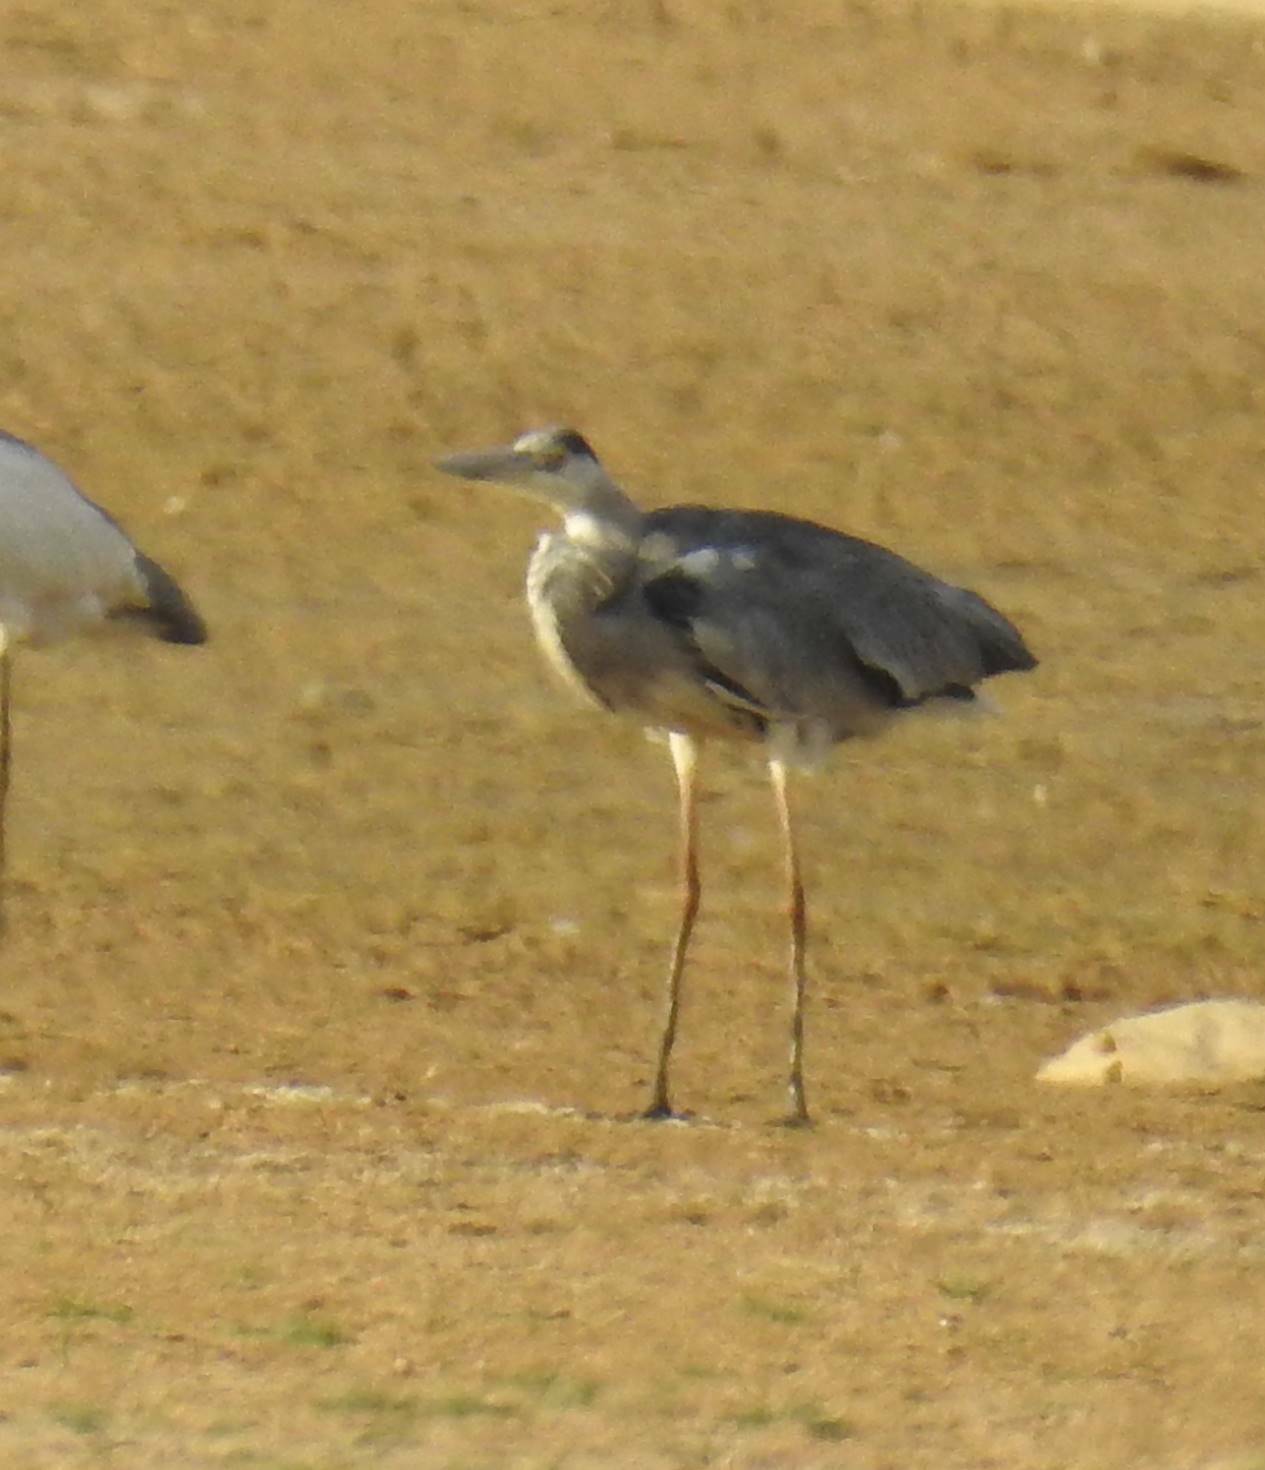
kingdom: Animalia
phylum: Chordata
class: Aves
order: Pelecaniformes
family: Ardeidae
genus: Ardea
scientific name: Ardea cinerea
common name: Grey heron
